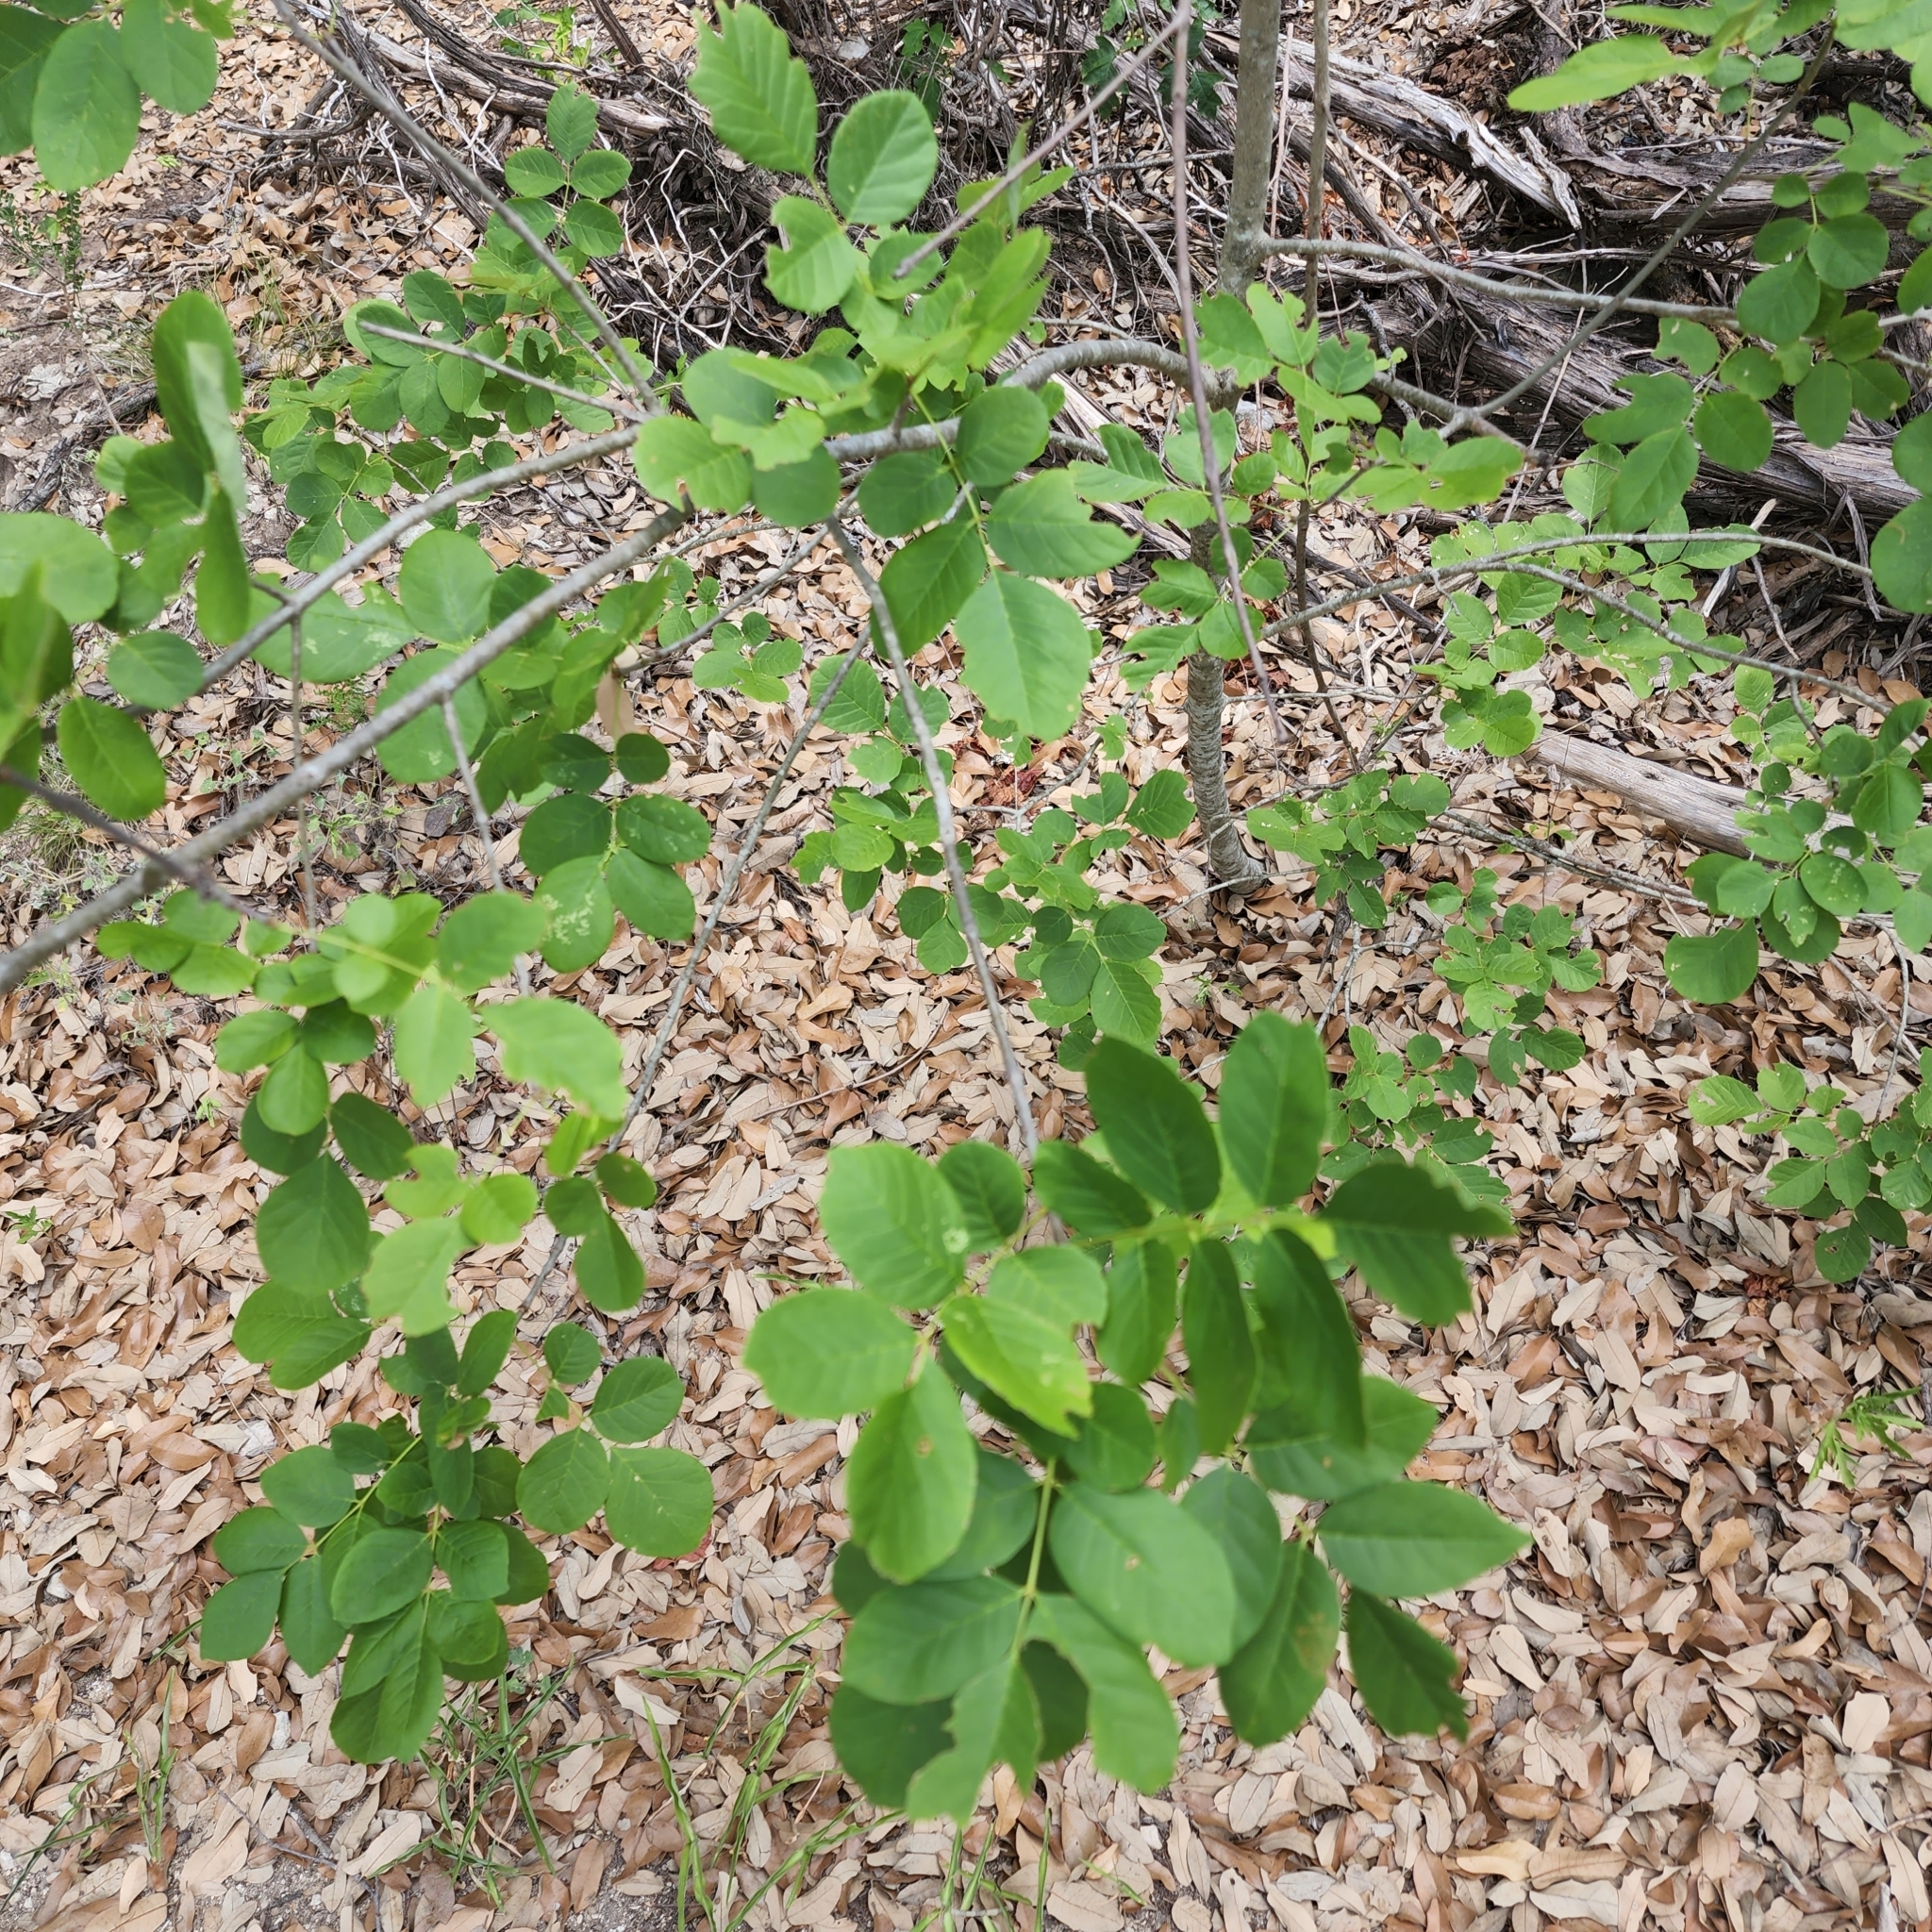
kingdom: Plantae
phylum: Tracheophyta
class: Magnoliopsida
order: Lamiales
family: Oleaceae
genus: Fraxinus
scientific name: Fraxinus albicans
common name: Texas ash
